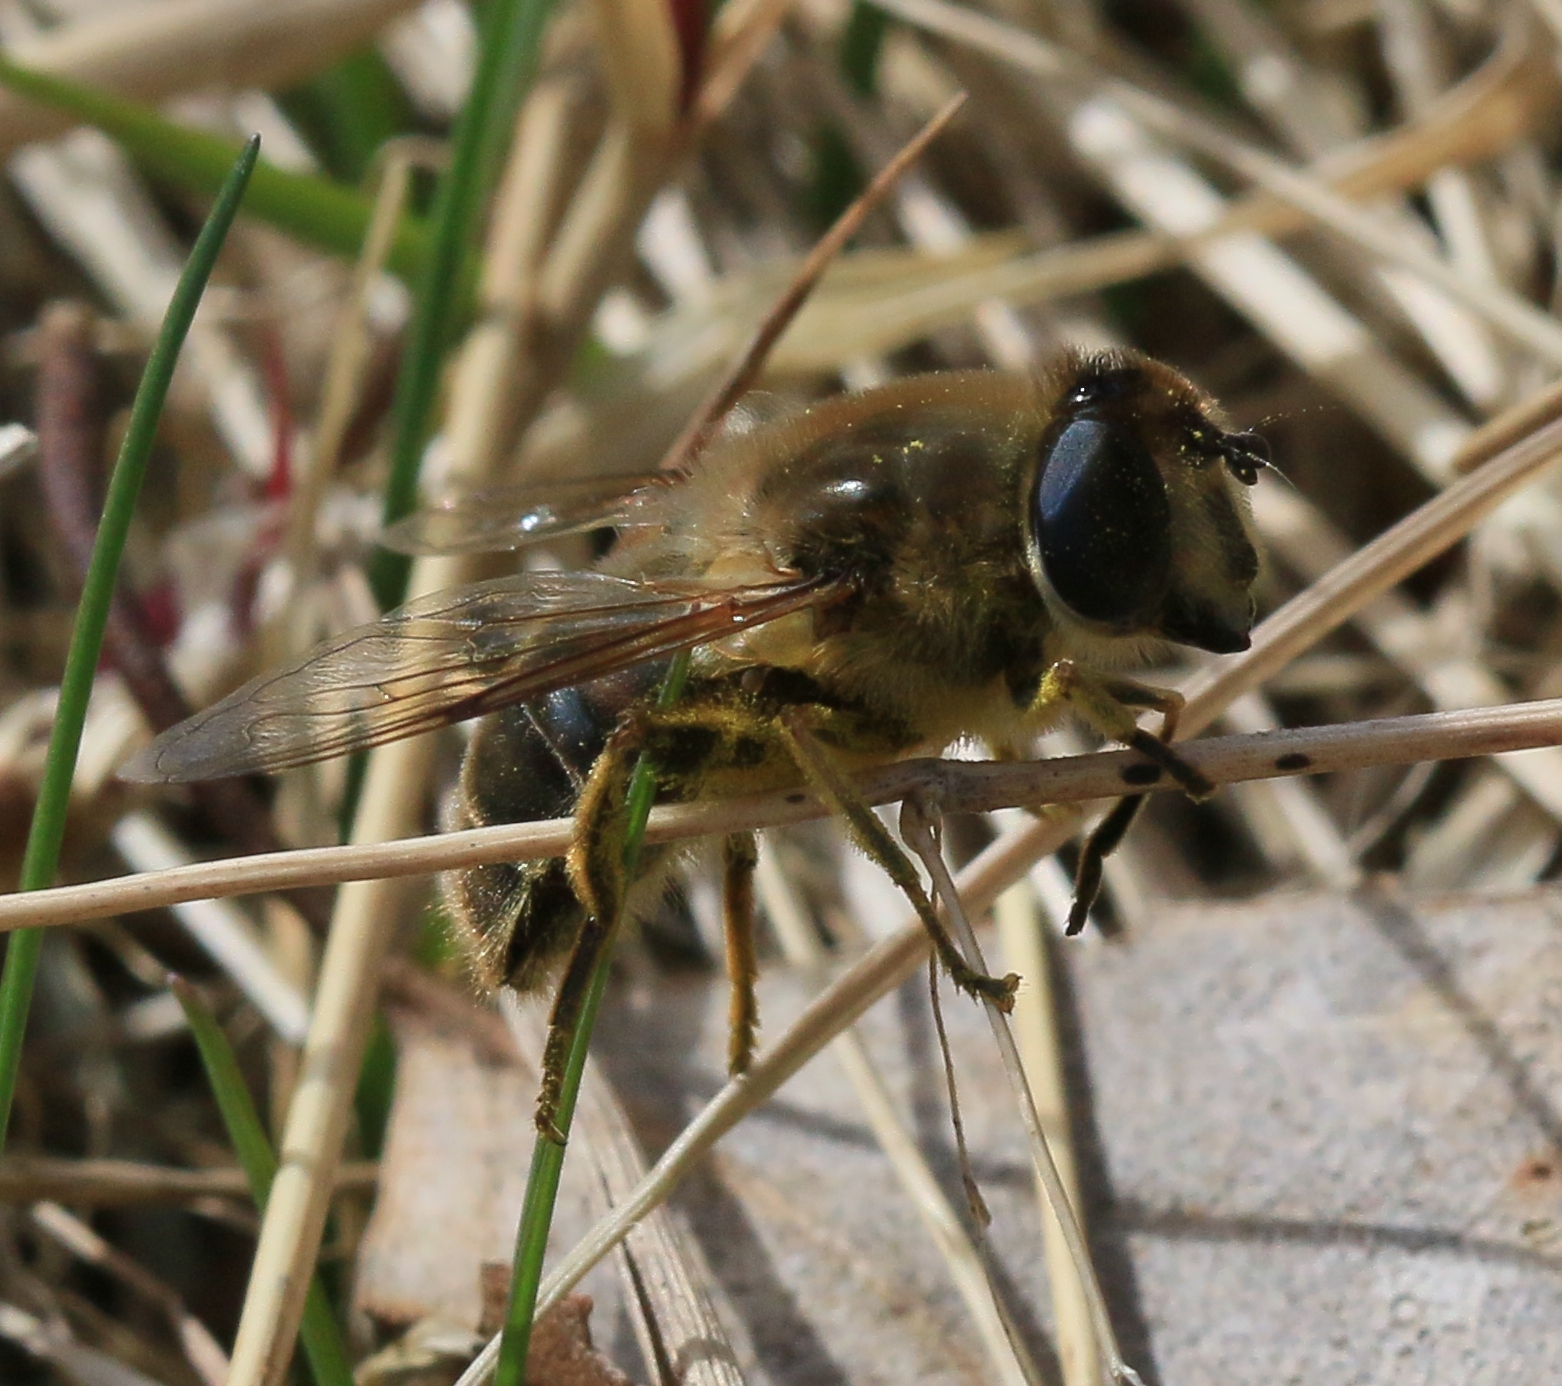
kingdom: Animalia
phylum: Arthropoda
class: Insecta
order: Diptera
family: Syrphidae
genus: Eristalis
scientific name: Eristalis tenax
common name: Drone fly
